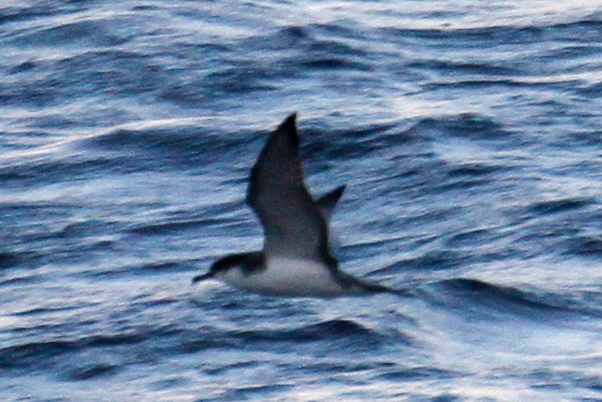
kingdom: Animalia
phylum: Chordata
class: Aves
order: Procellariiformes
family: Procellariidae
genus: Puffinus
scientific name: Puffinus bulleri
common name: Buller's shearwater
